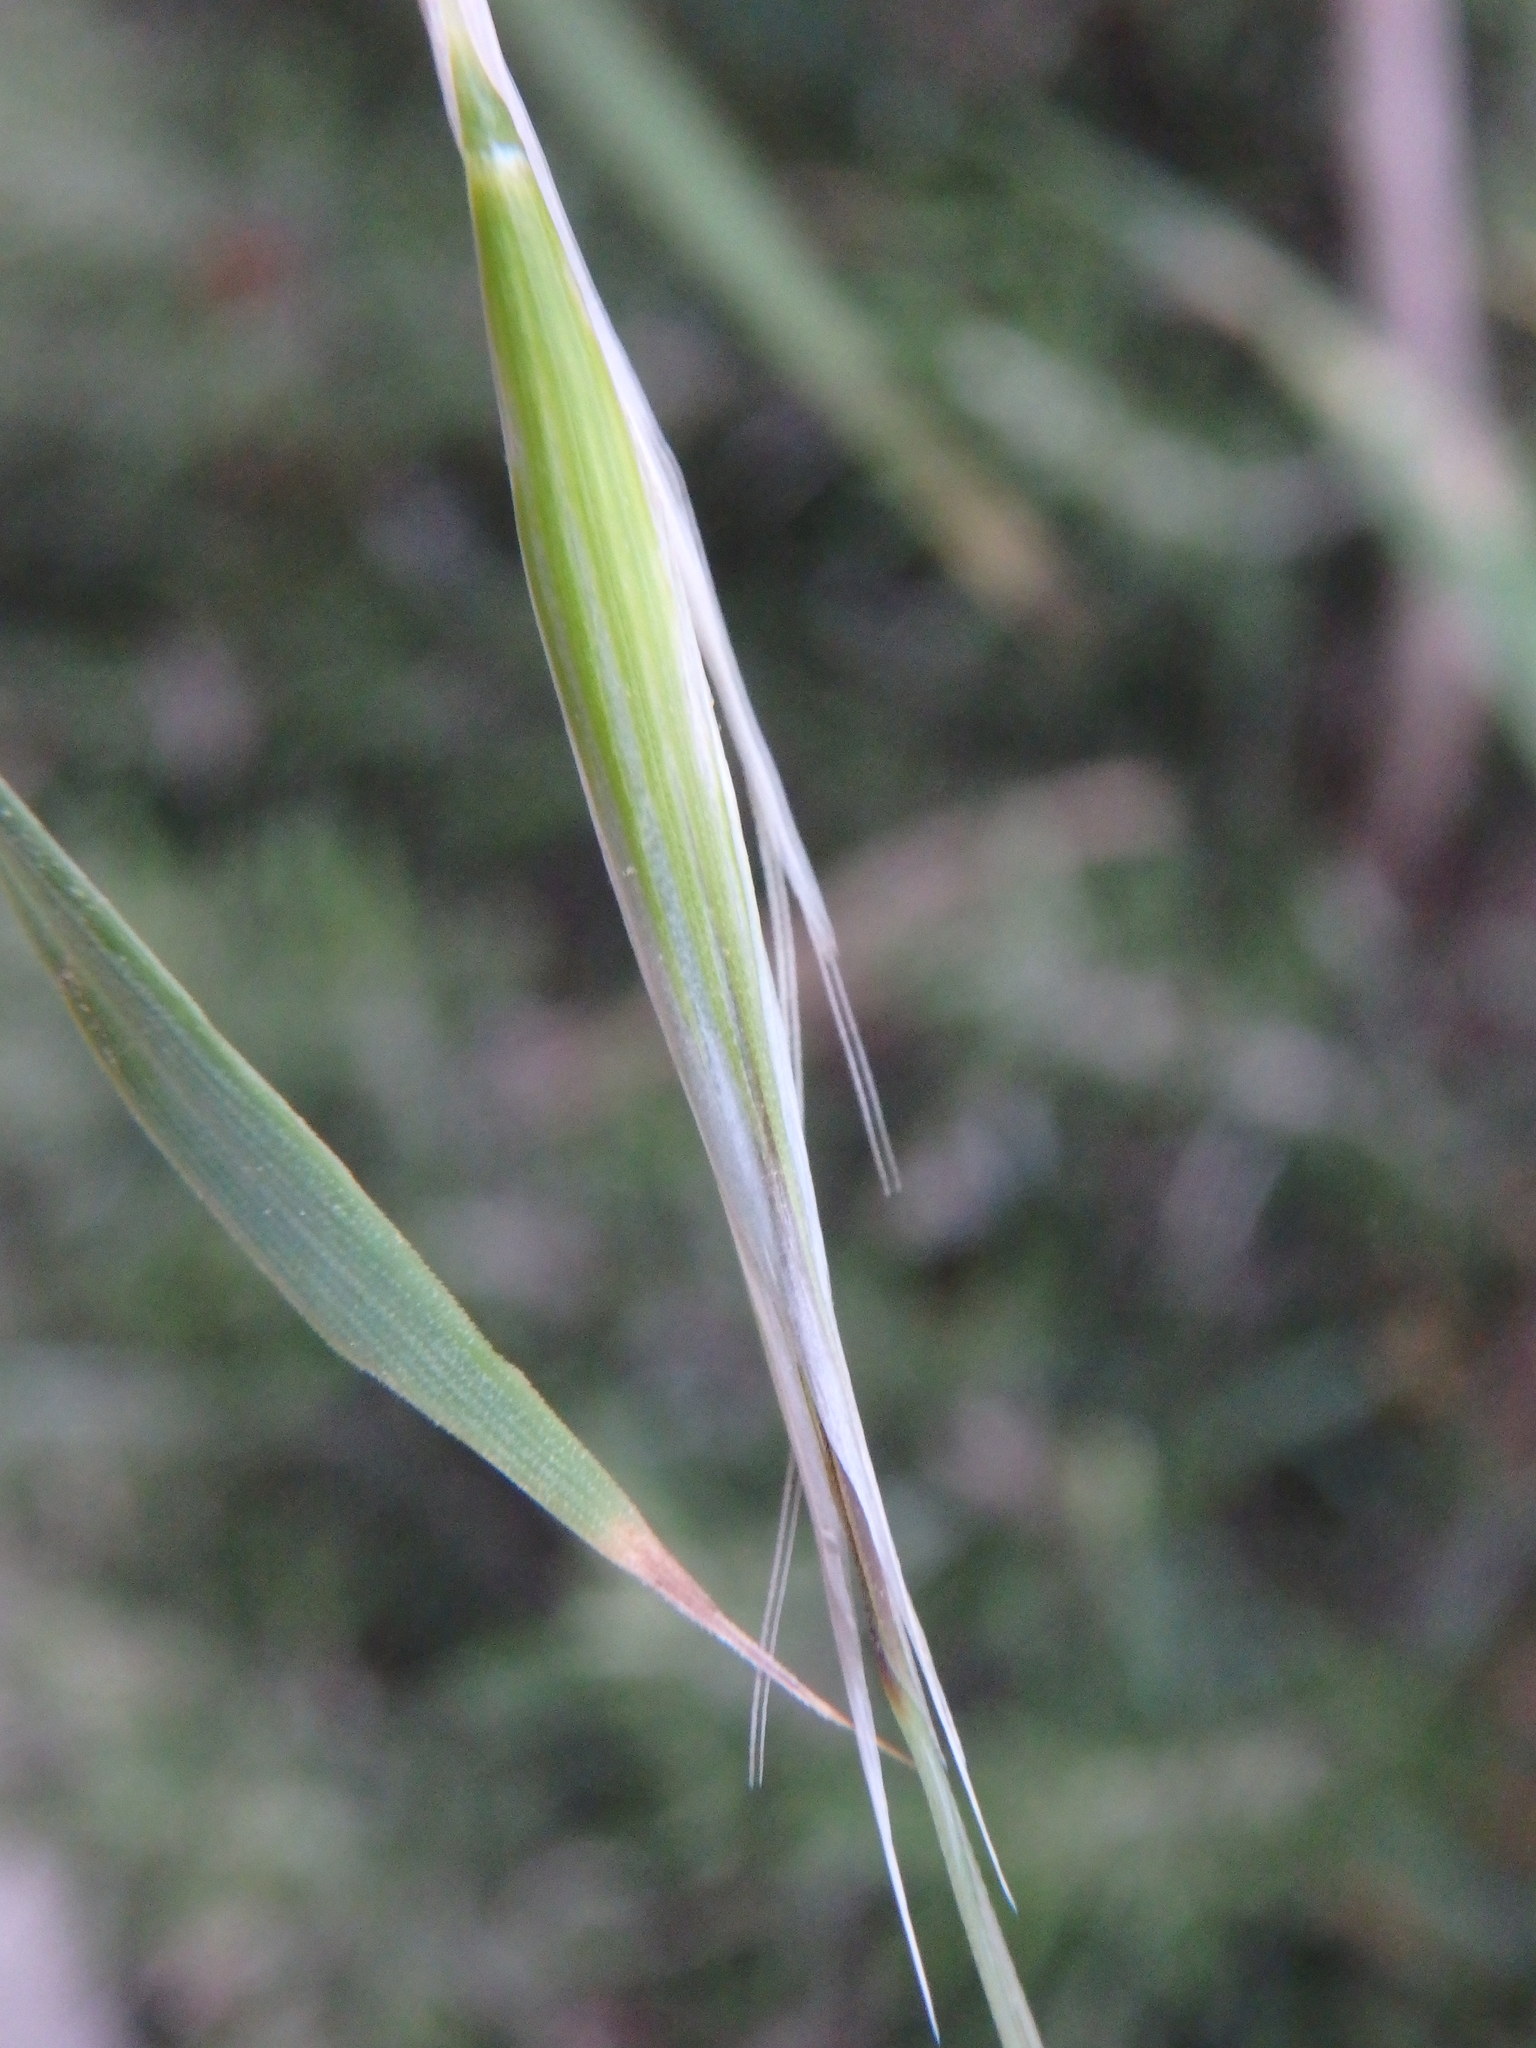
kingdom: Plantae
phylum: Tracheophyta
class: Liliopsida
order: Poales
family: Poaceae
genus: Avena
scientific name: Avena barbata
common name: Slender oat
